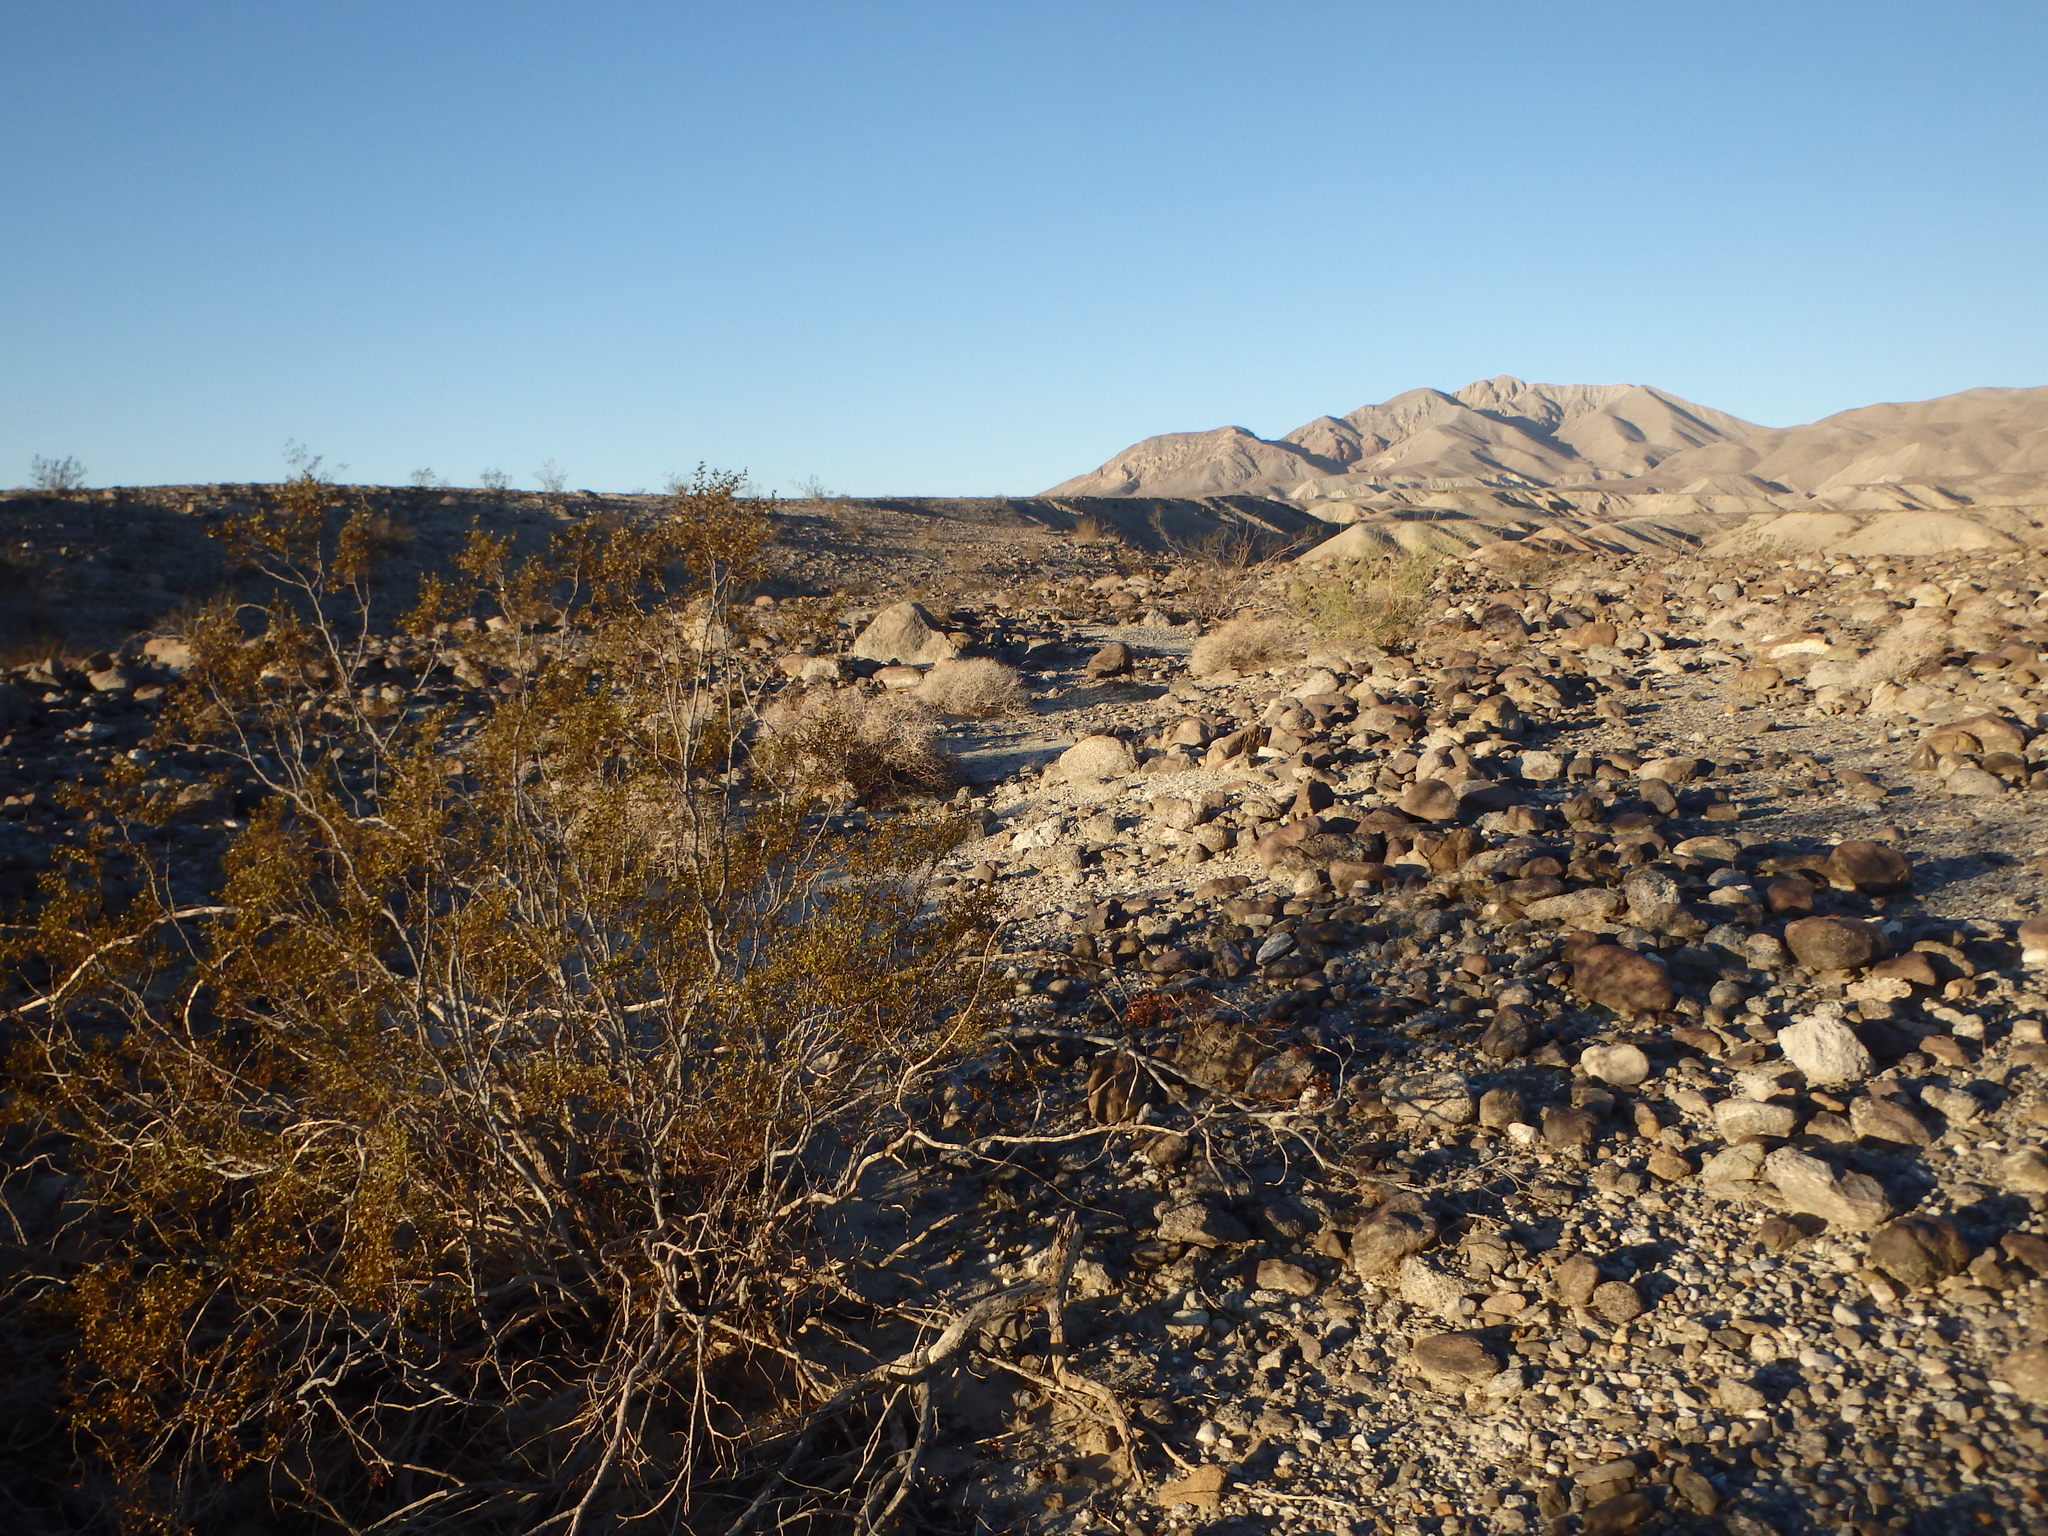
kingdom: Plantae
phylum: Tracheophyta
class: Magnoliopsida
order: Zygophyllales
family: Zygophyllaceae
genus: Larrea
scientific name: Larrea tridentata
